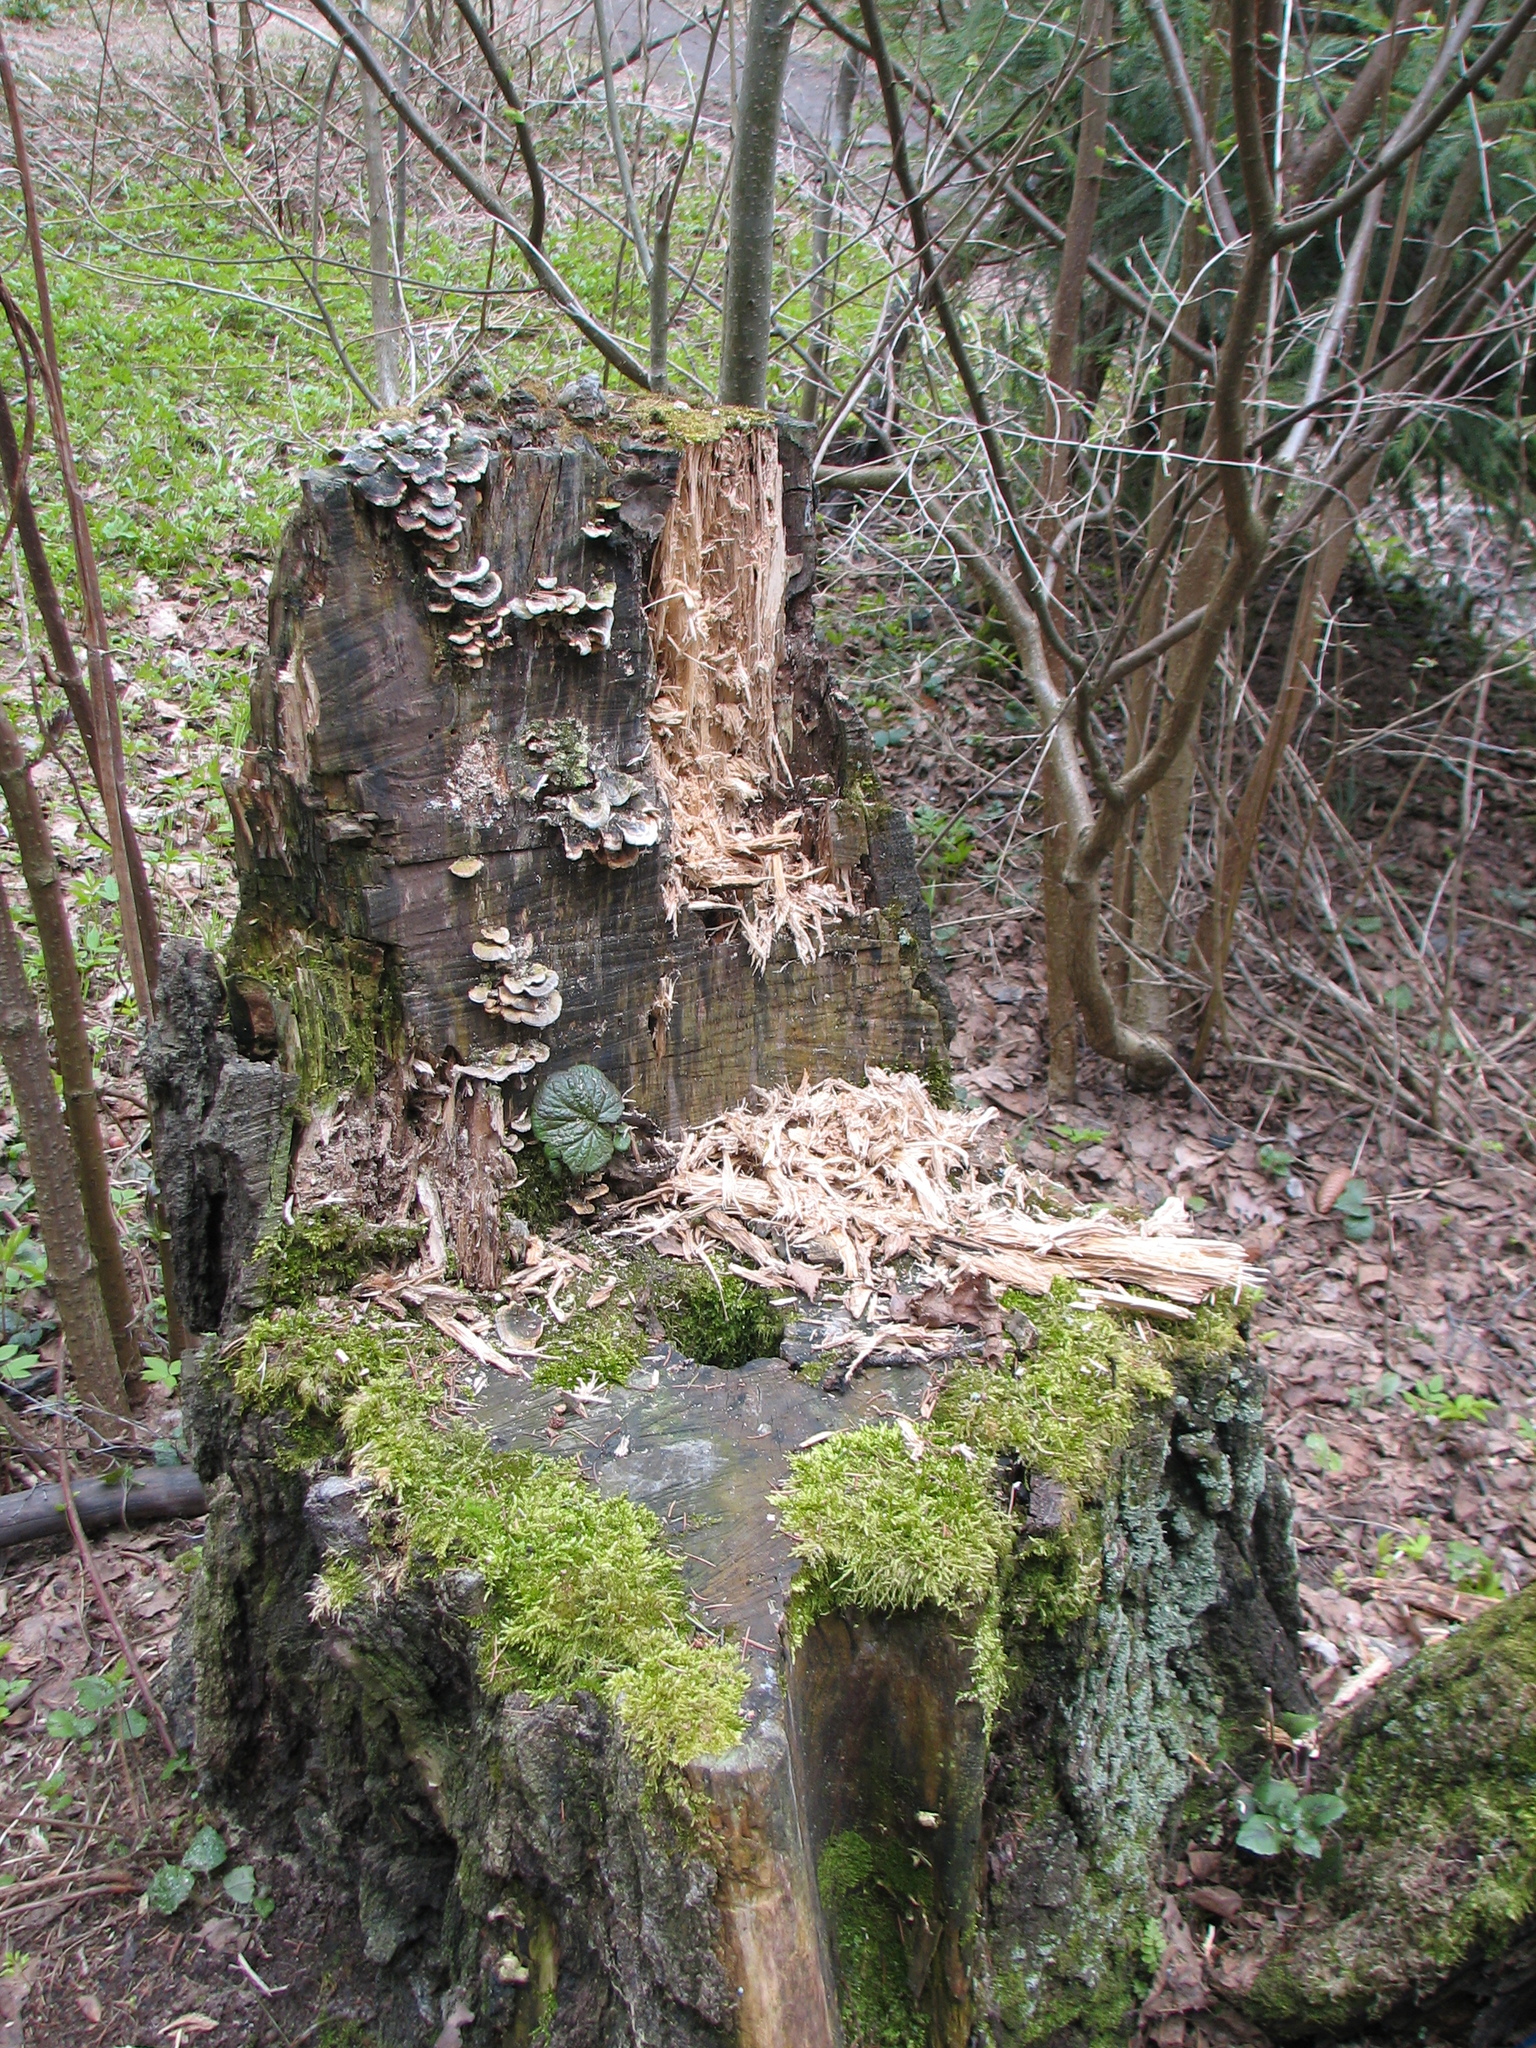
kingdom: Fungi
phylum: Basidiomycota
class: Agaricomycetes
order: Polyporales
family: Polyporaceae
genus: Trametes
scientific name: Trametes versicolor
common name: Turkeytail
